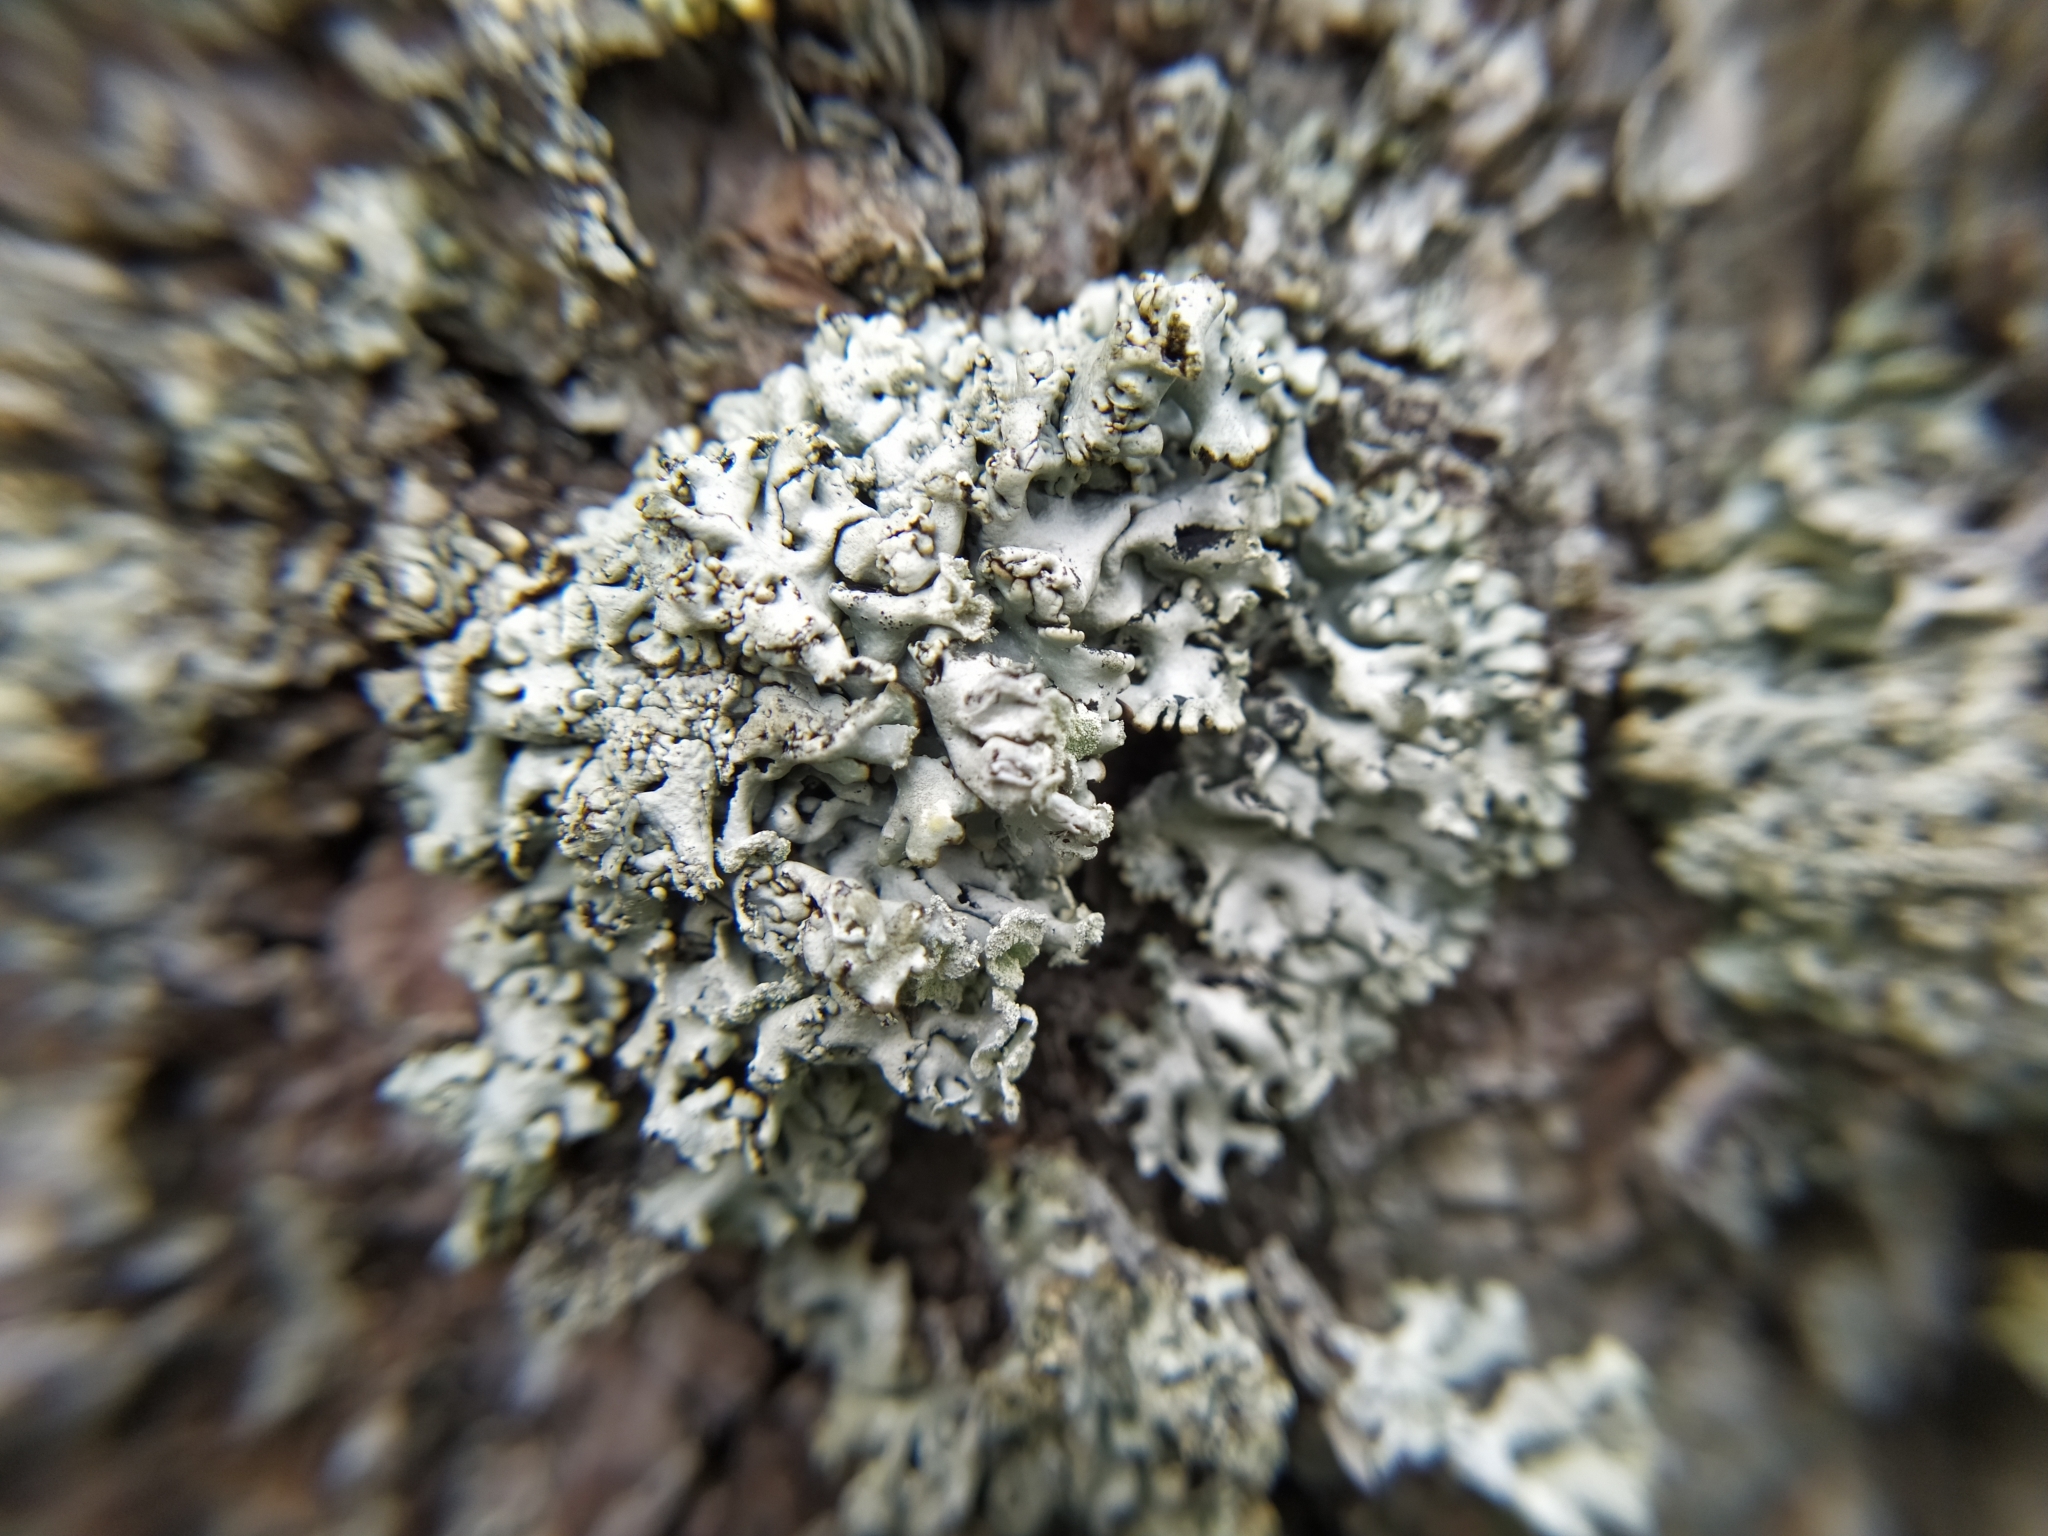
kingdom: Fungi
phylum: Ascomycota
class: Lecanoromycetes
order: Lecanorales
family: Parmeliaceae
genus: Hypogymnia
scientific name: Hypogymnia physodes
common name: Dark crottle
